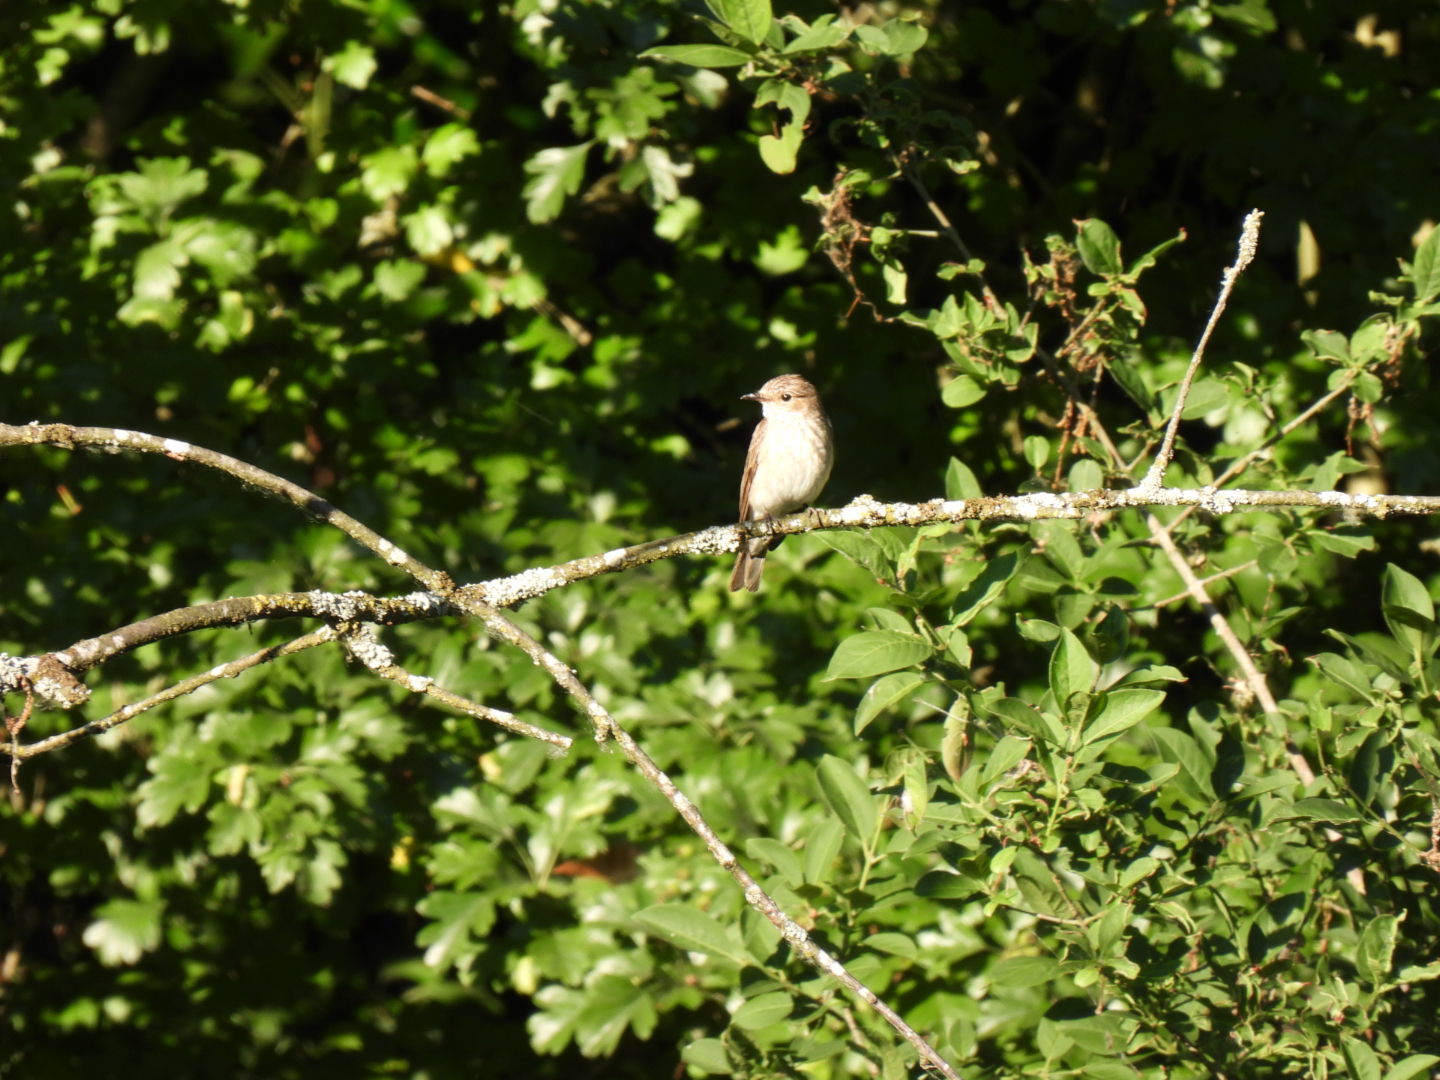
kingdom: Animalia
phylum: Chordata
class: Aves
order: Passeriformes
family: Muscicapidae
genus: Muscicapa
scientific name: Muscicapa striata
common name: Spotted flycatcher
